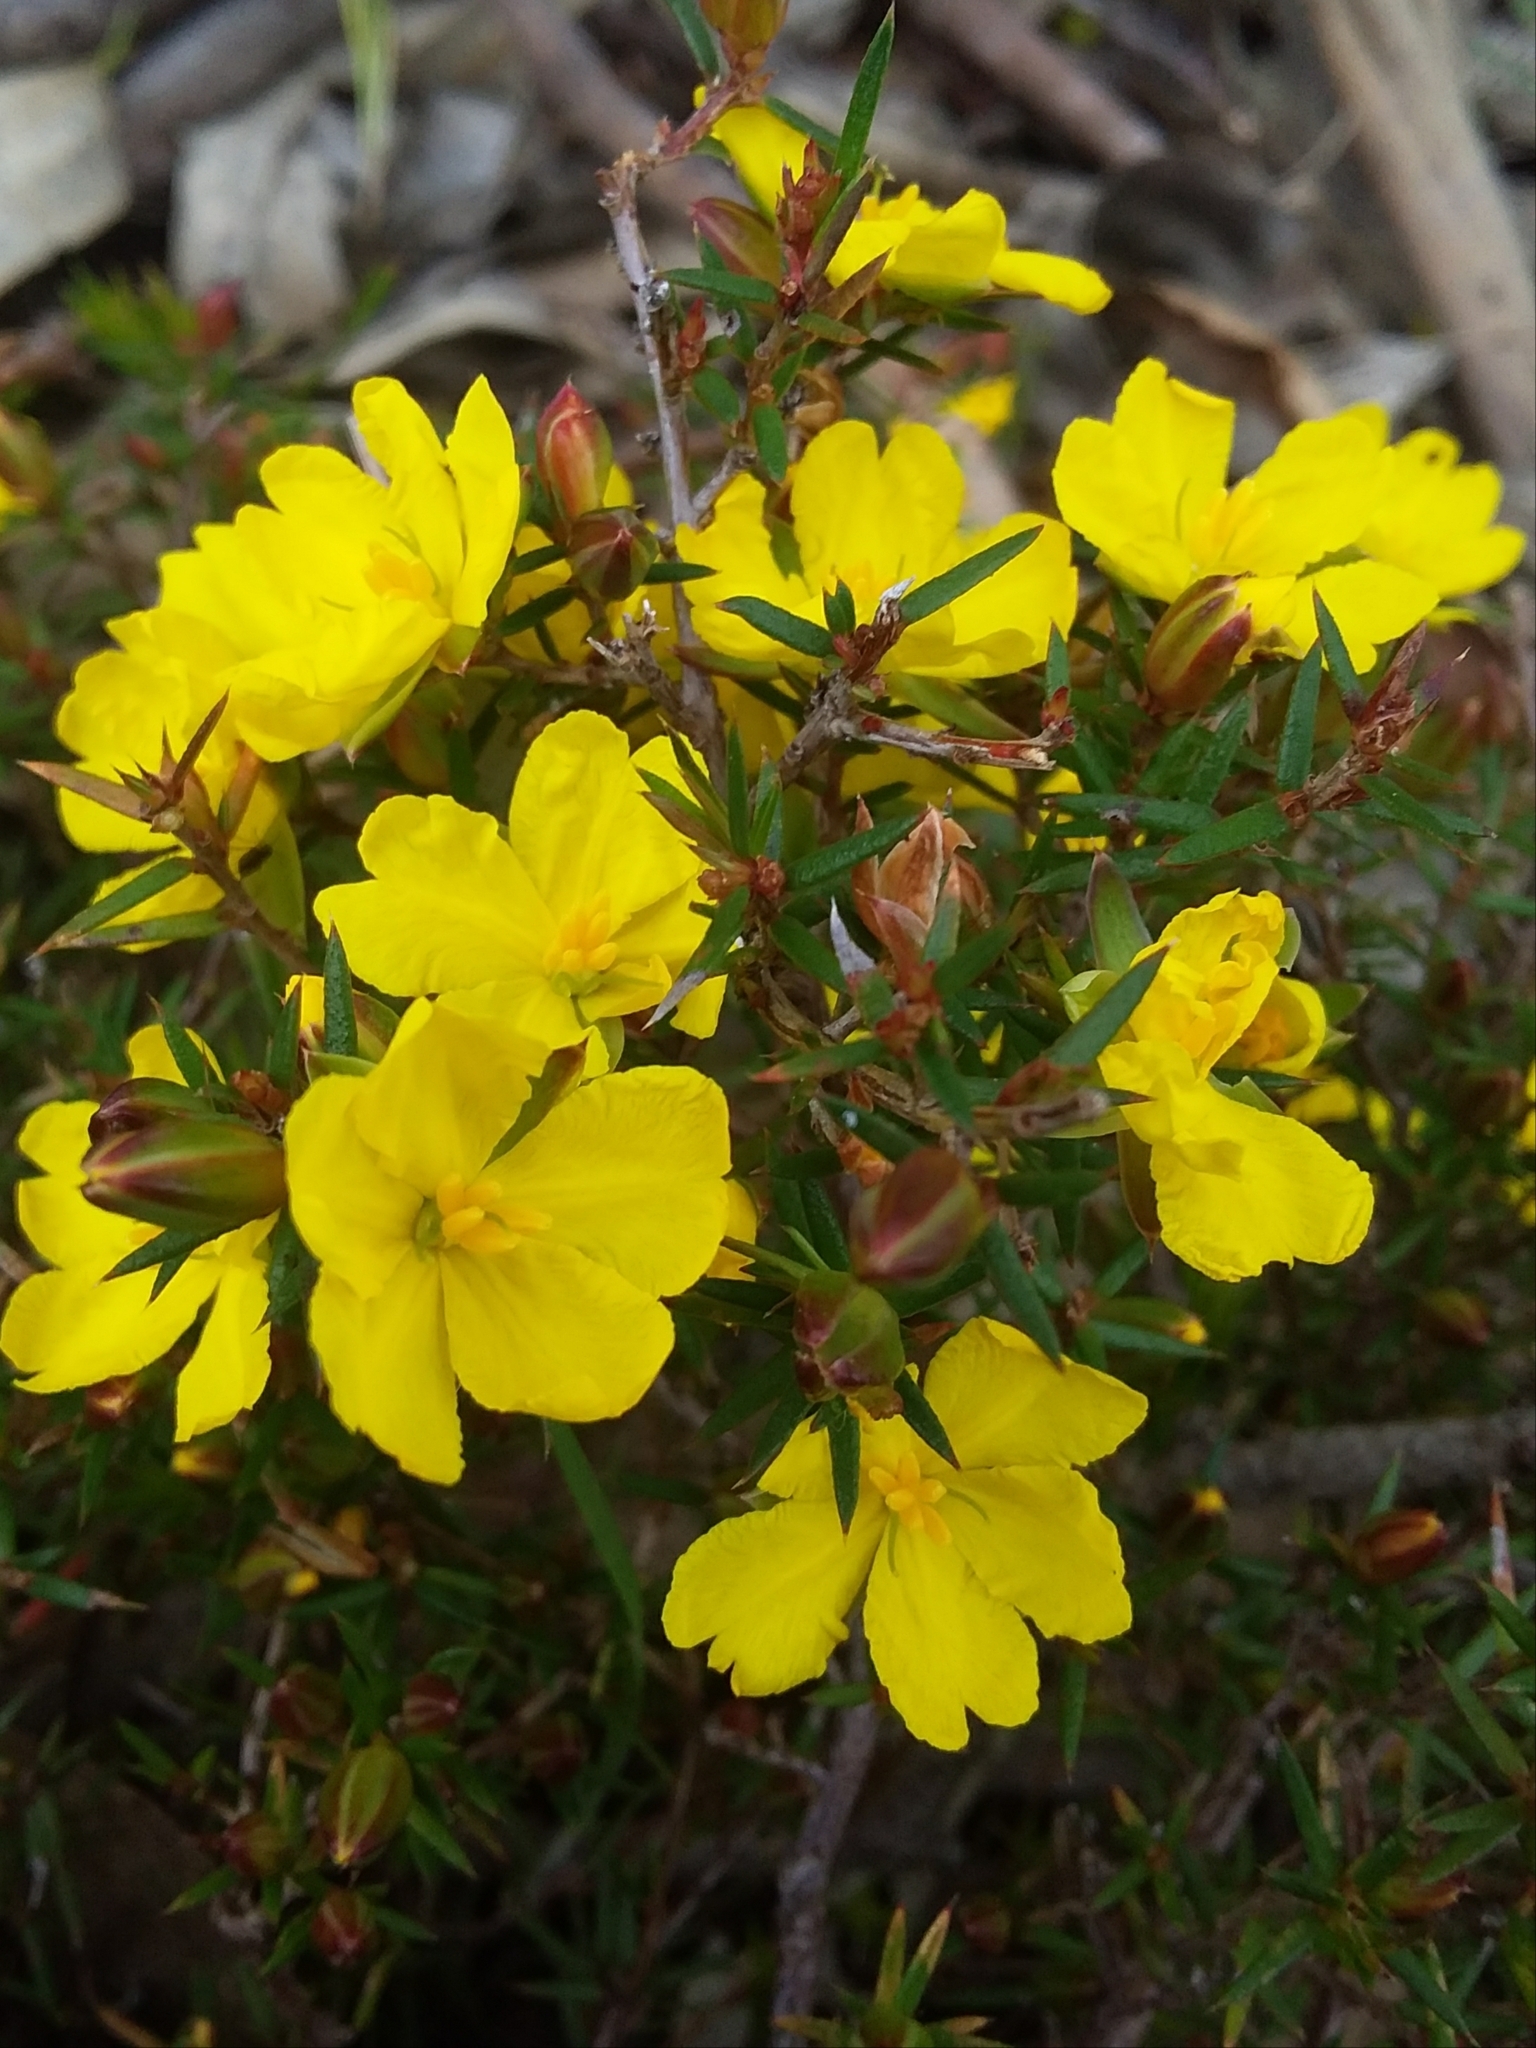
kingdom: Plantae
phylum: Tracheophyta
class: Magnoliopsida
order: Dilleniales
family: Dilleniaceae
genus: Hibbertia
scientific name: Hibbertia exutiacies
